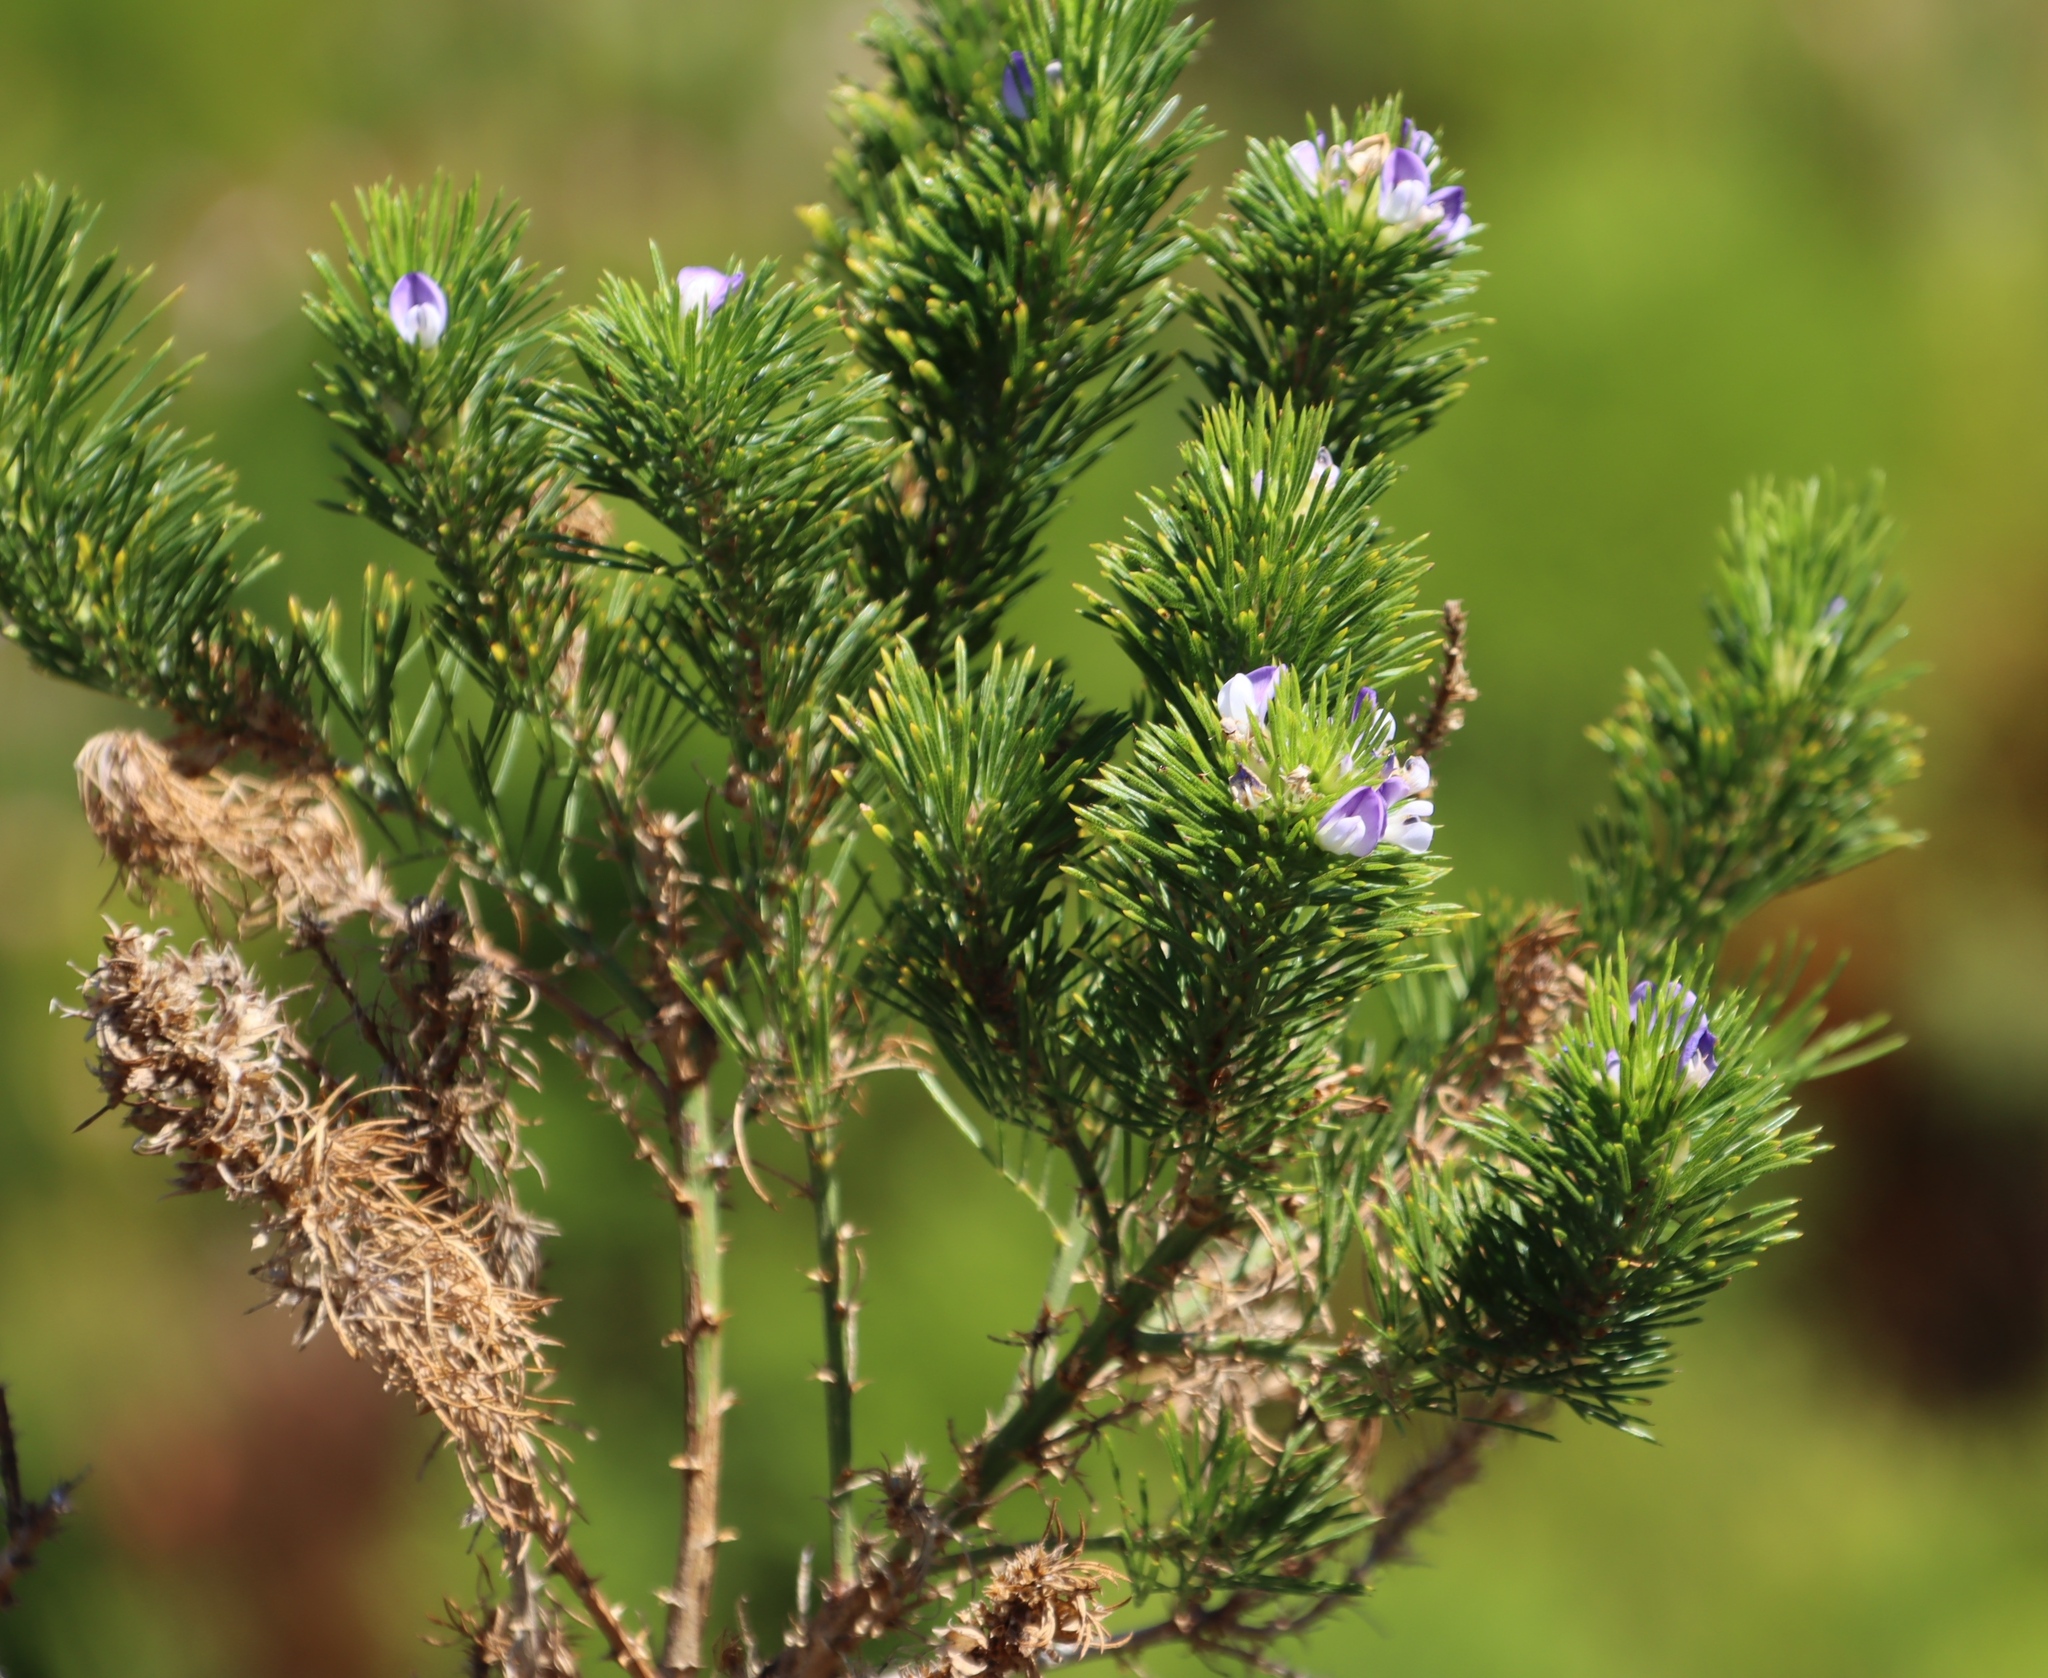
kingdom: Plantae
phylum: Tracheophyta
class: Magnoliopsida
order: Fabales
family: Fabaceae
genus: Psoralea
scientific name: Psoralea pinnata
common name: African scurfpea
